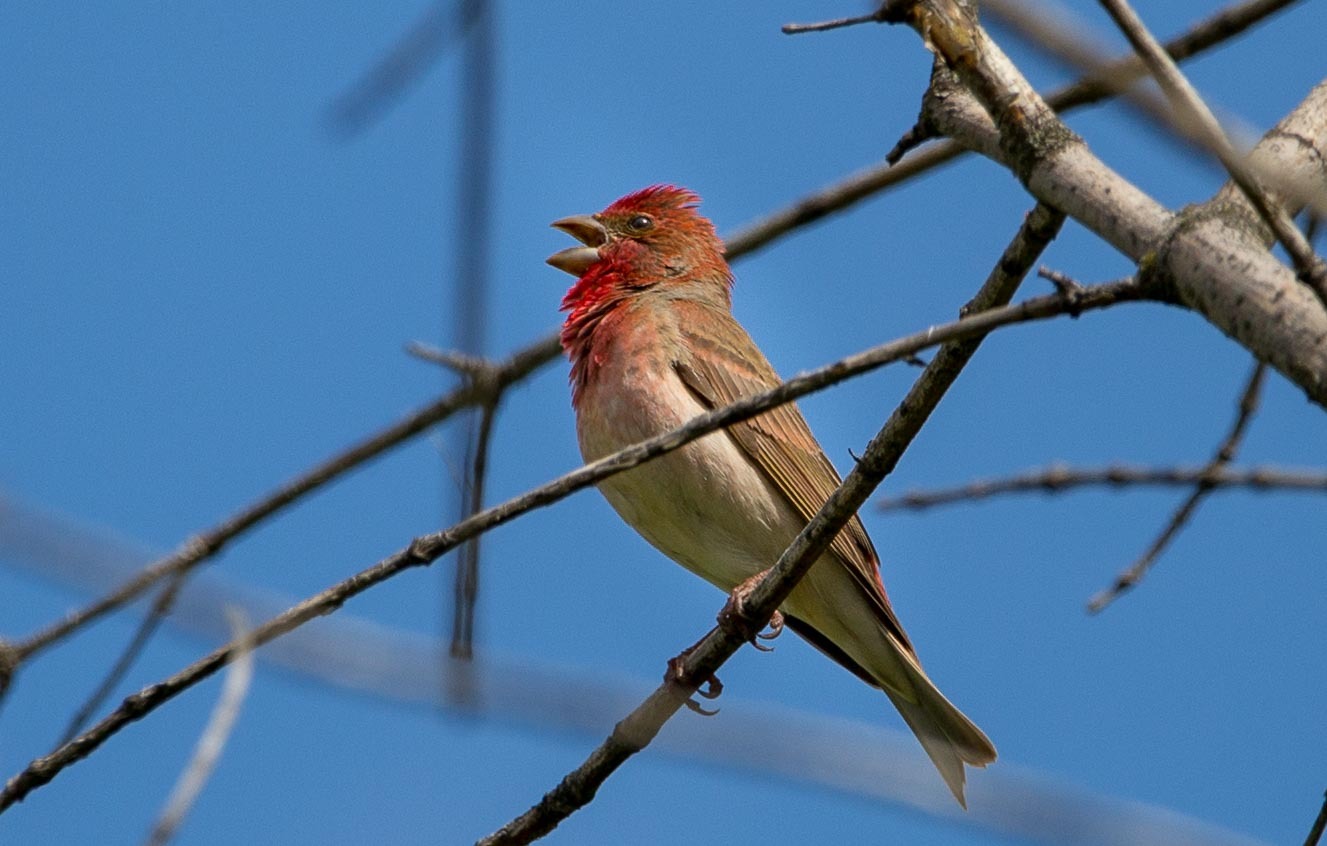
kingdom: Animalia
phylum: Chordata
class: Aves
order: Passeriformes
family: Fringillidae
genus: Carpodacus
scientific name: Carpodacus erythrinus
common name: Common rosefinch
